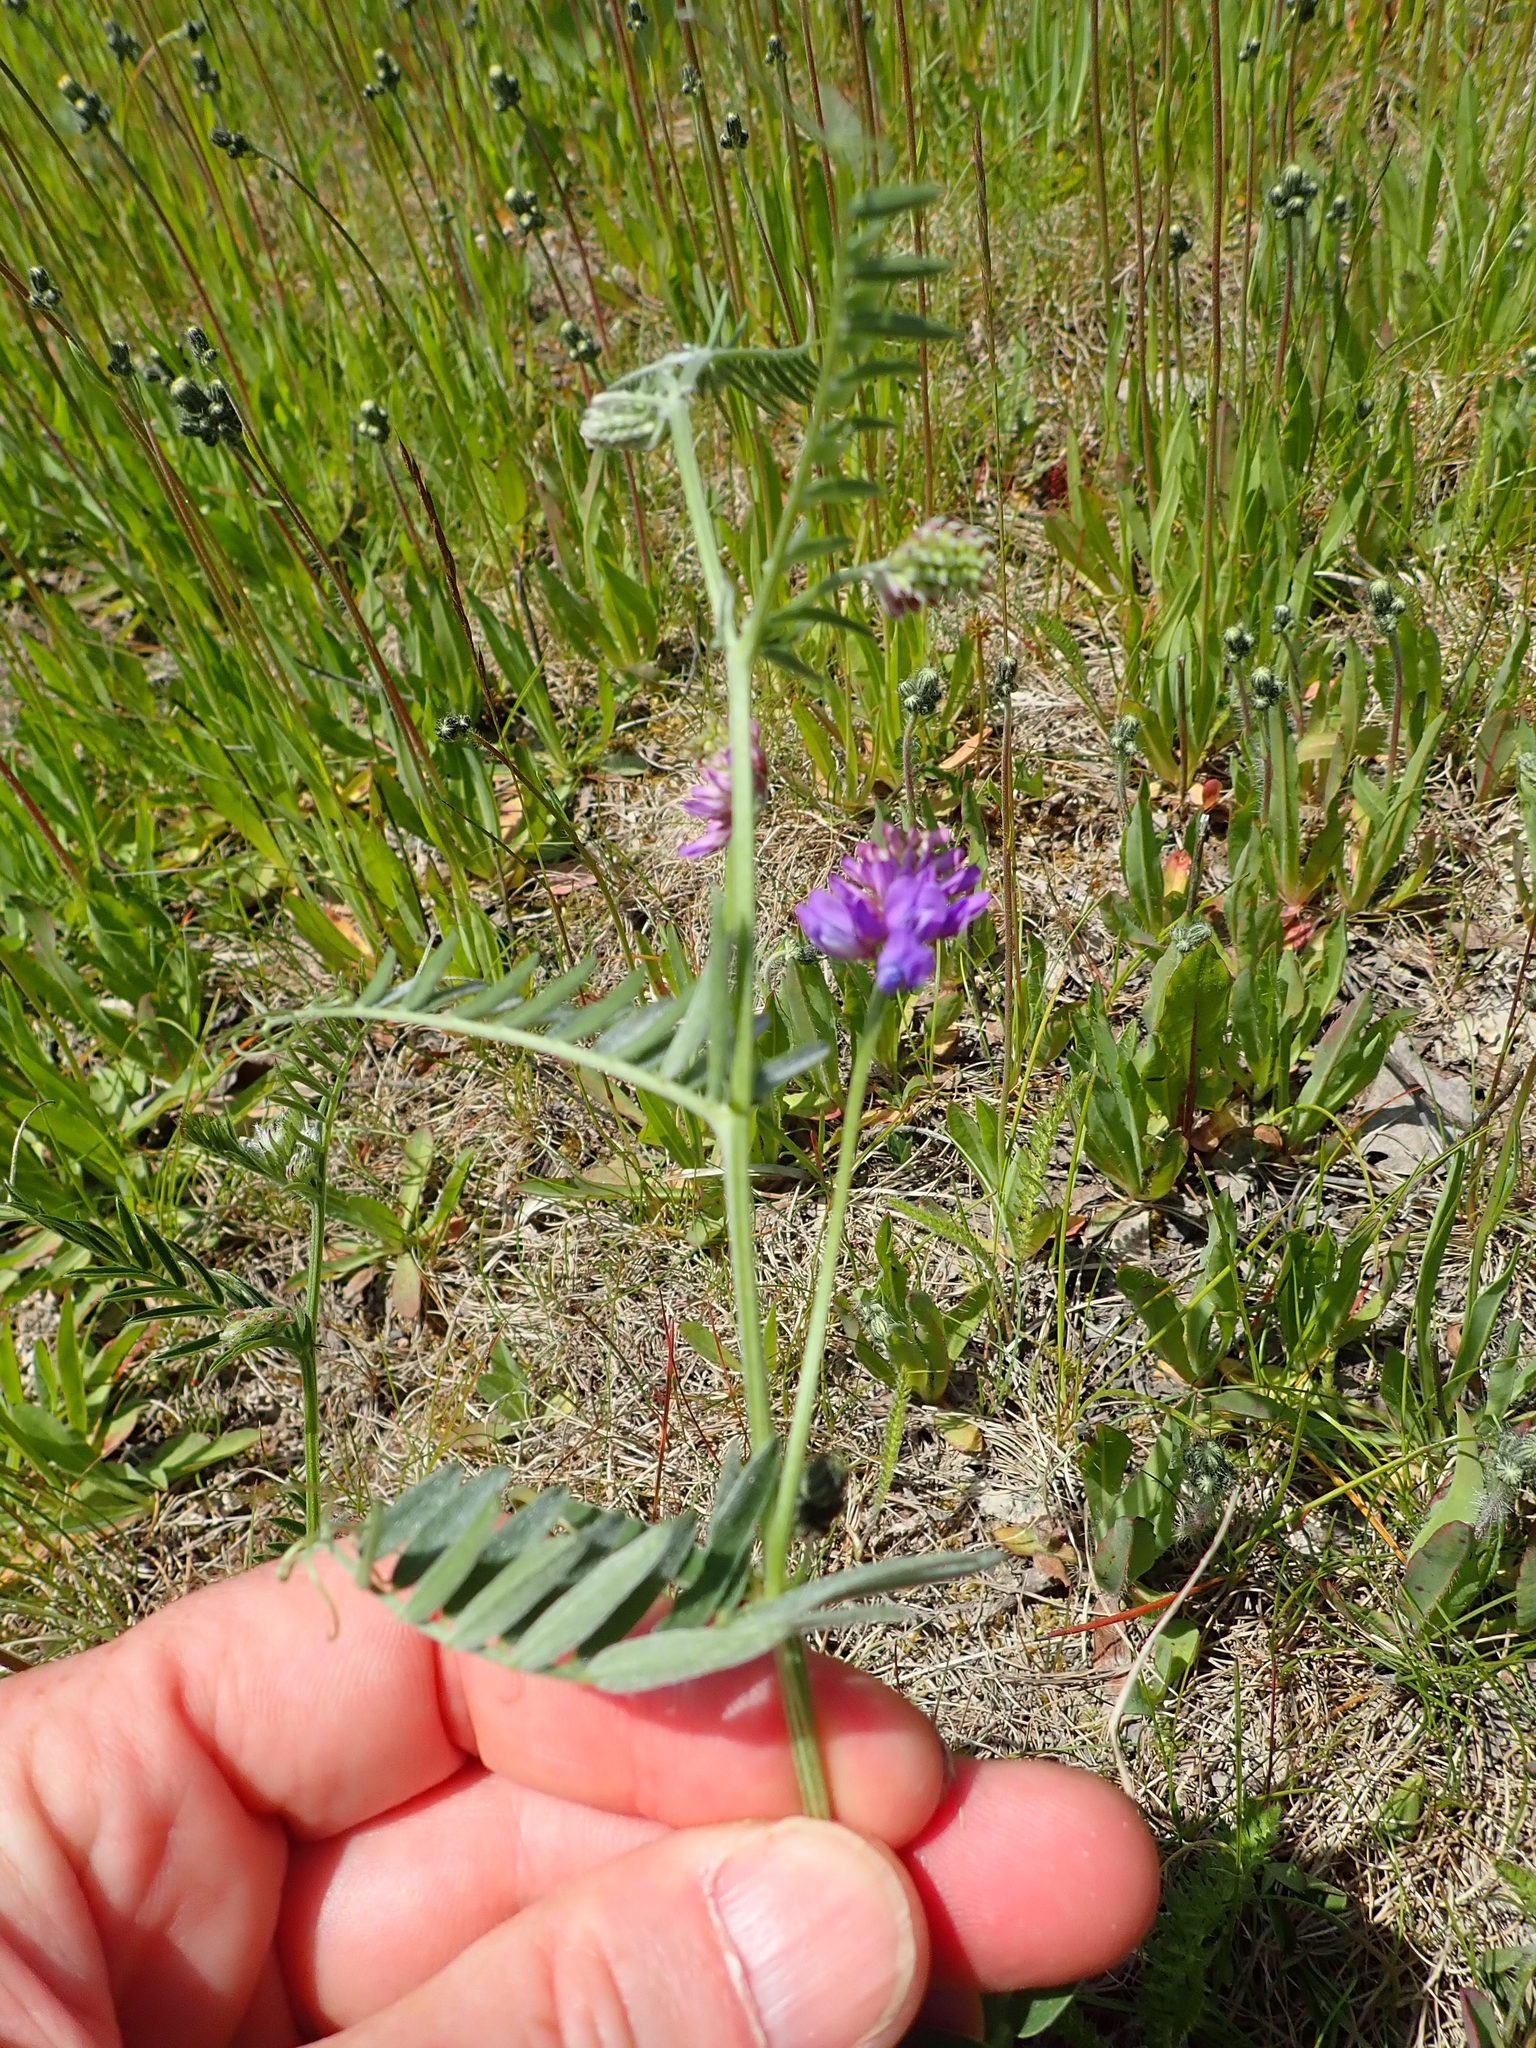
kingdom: Plantae
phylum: Tracheophyta
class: Magnoliopsida
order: Fabales
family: Fabaceae
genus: Vicia
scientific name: Vicia cracca
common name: Bird vetch
